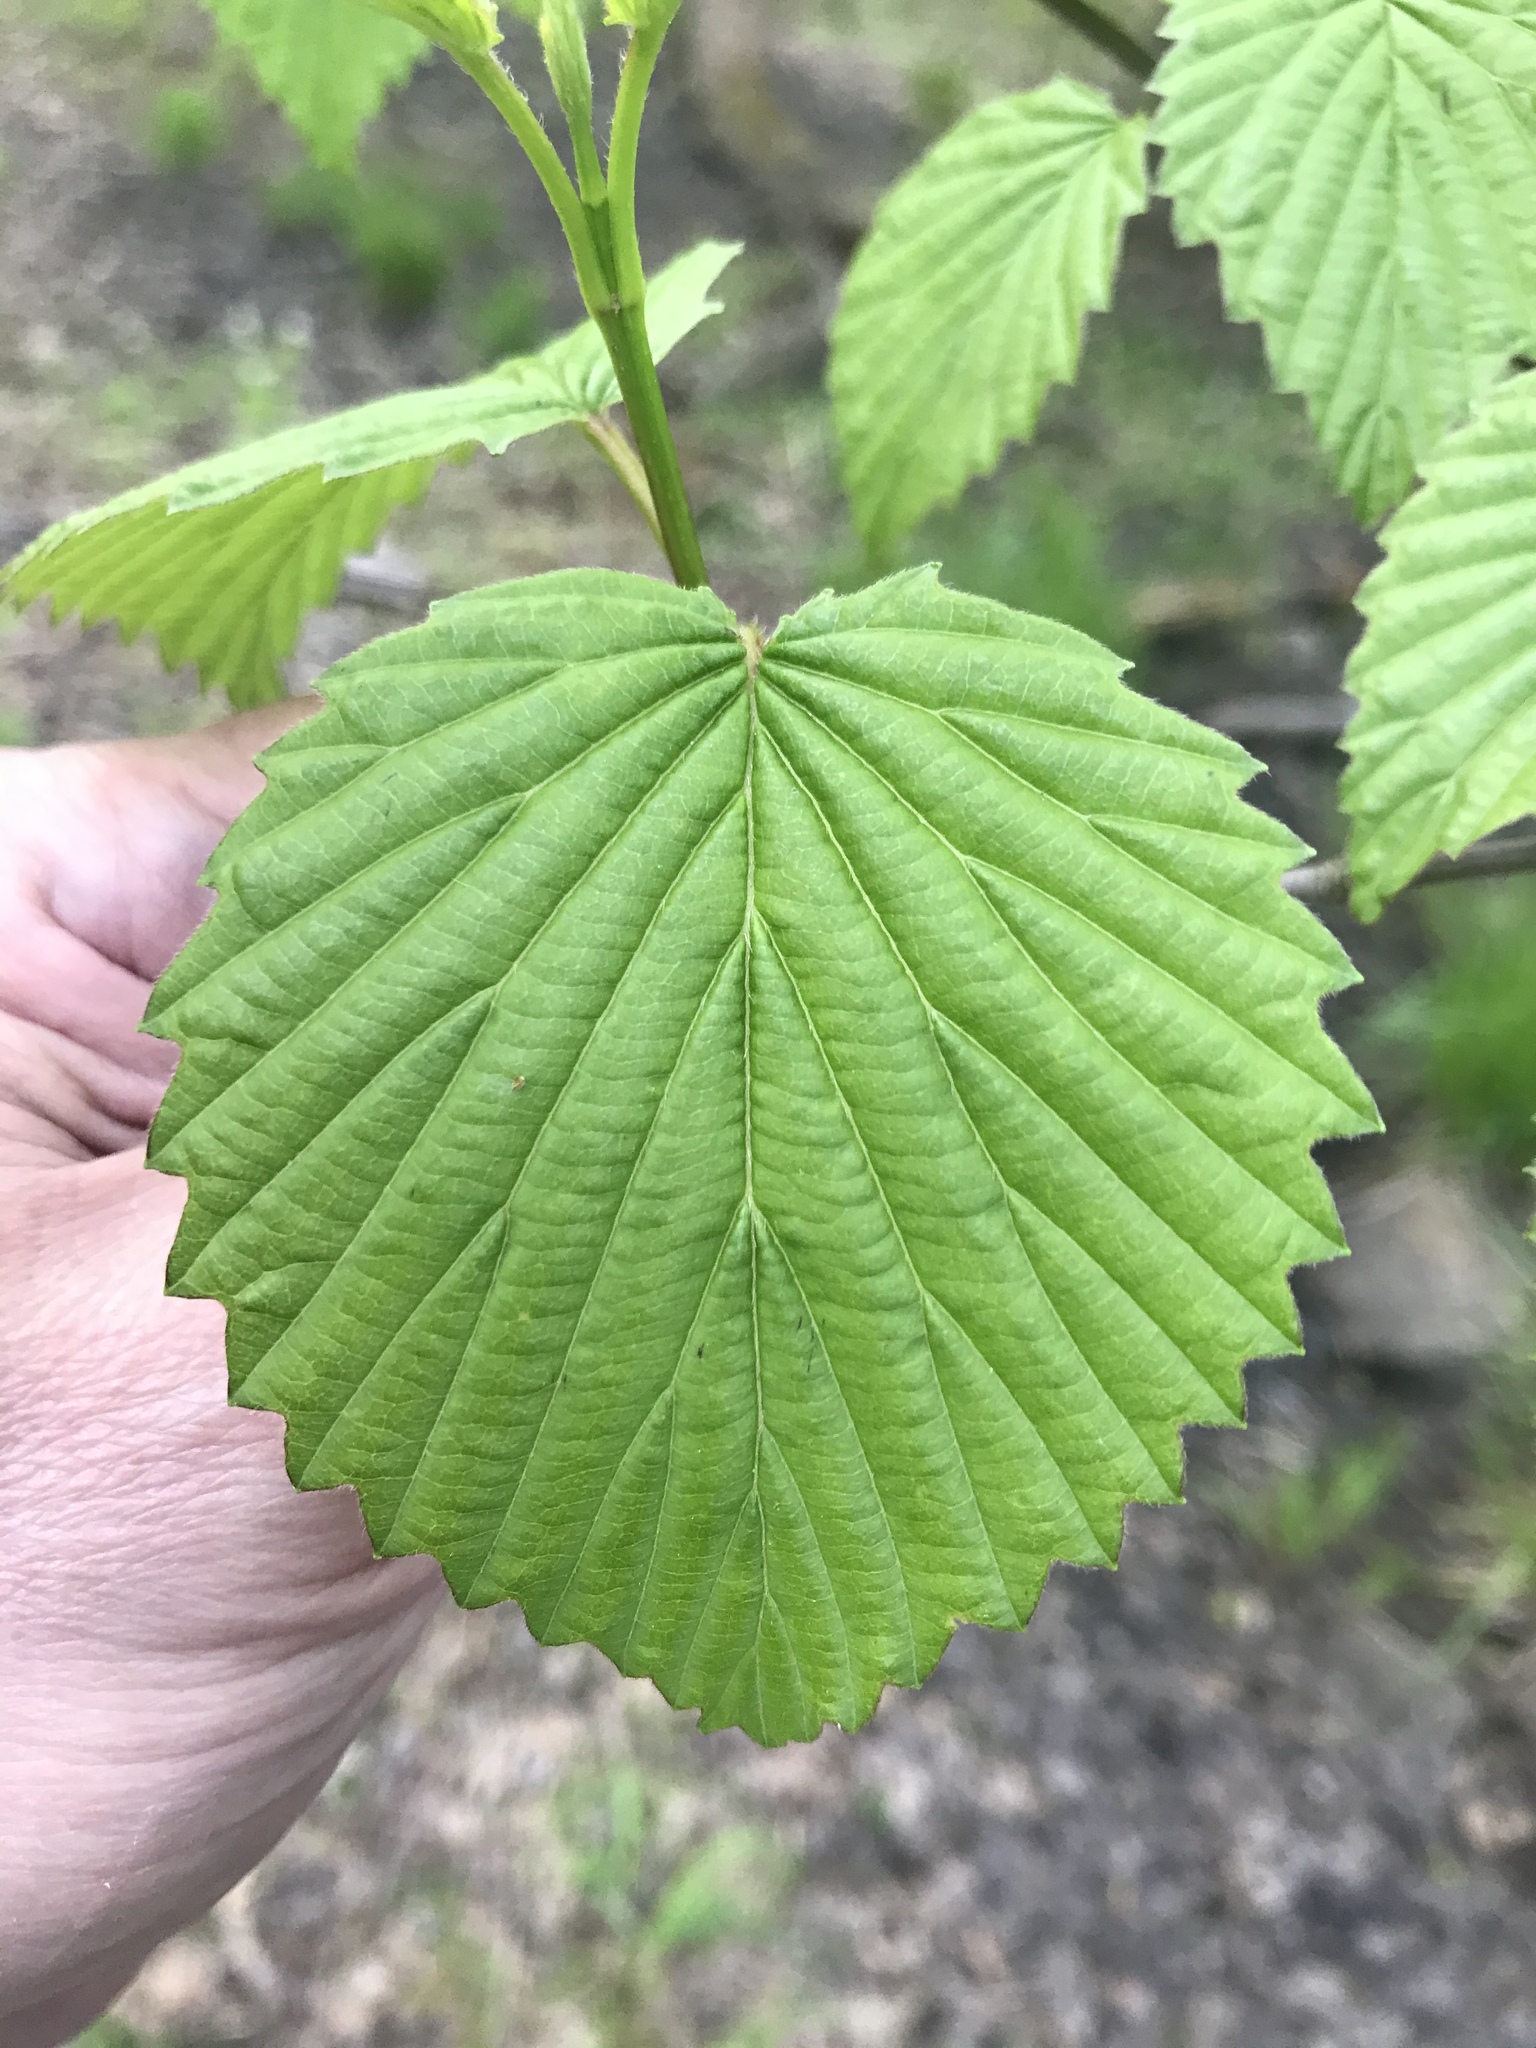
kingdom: Plantae
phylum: Tracheophyta
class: Magnoliopsida
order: Dipsacales
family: Viburnaceae
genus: Viburnum
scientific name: Viburnum dentatum
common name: Arrow-wood
